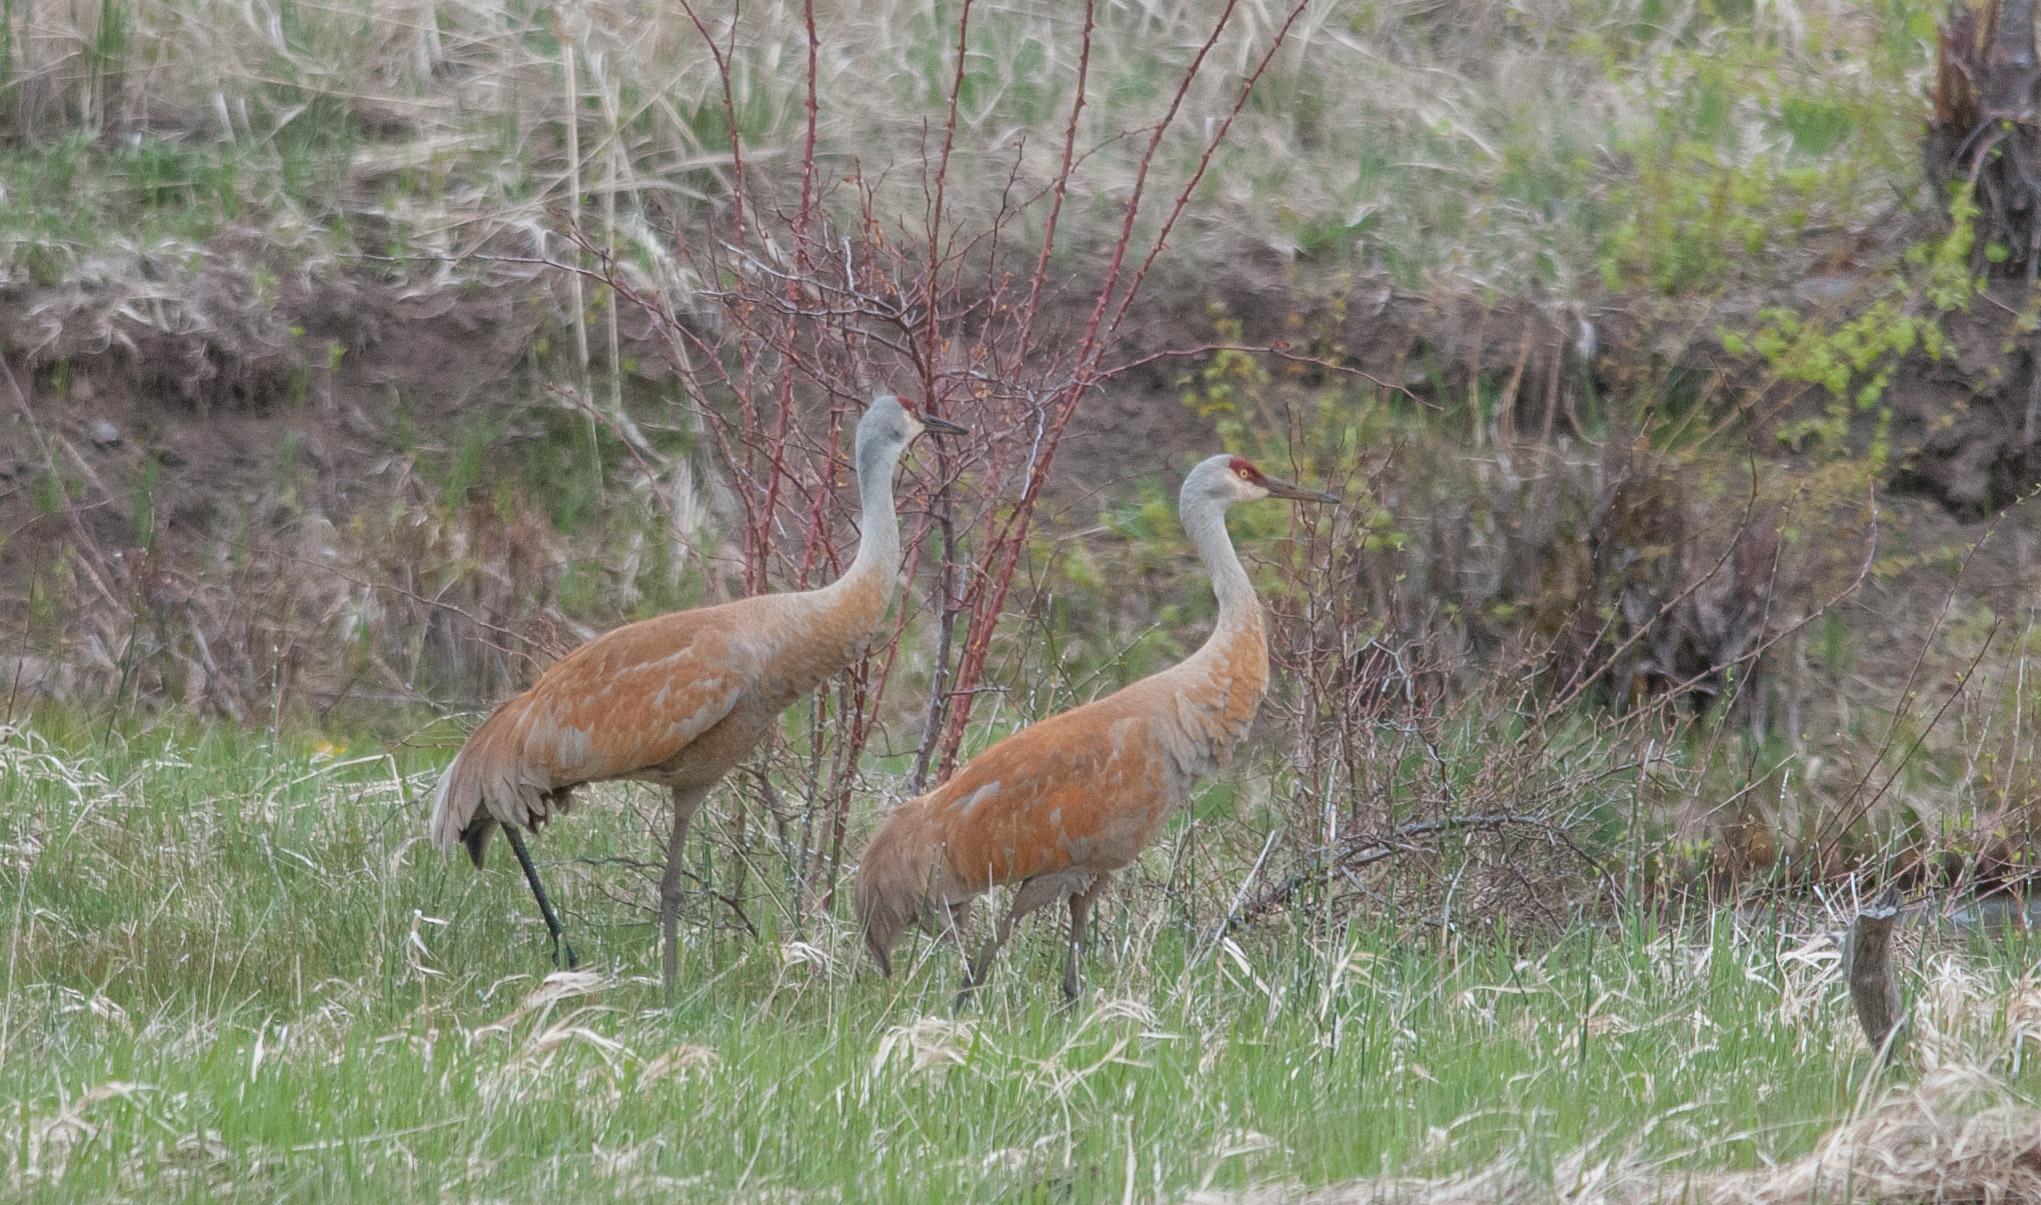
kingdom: Animalia
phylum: Chordata
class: Aves
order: Gruiformes
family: Gruidae
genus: Grus
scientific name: Grus canadensis
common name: Sandhill crane
